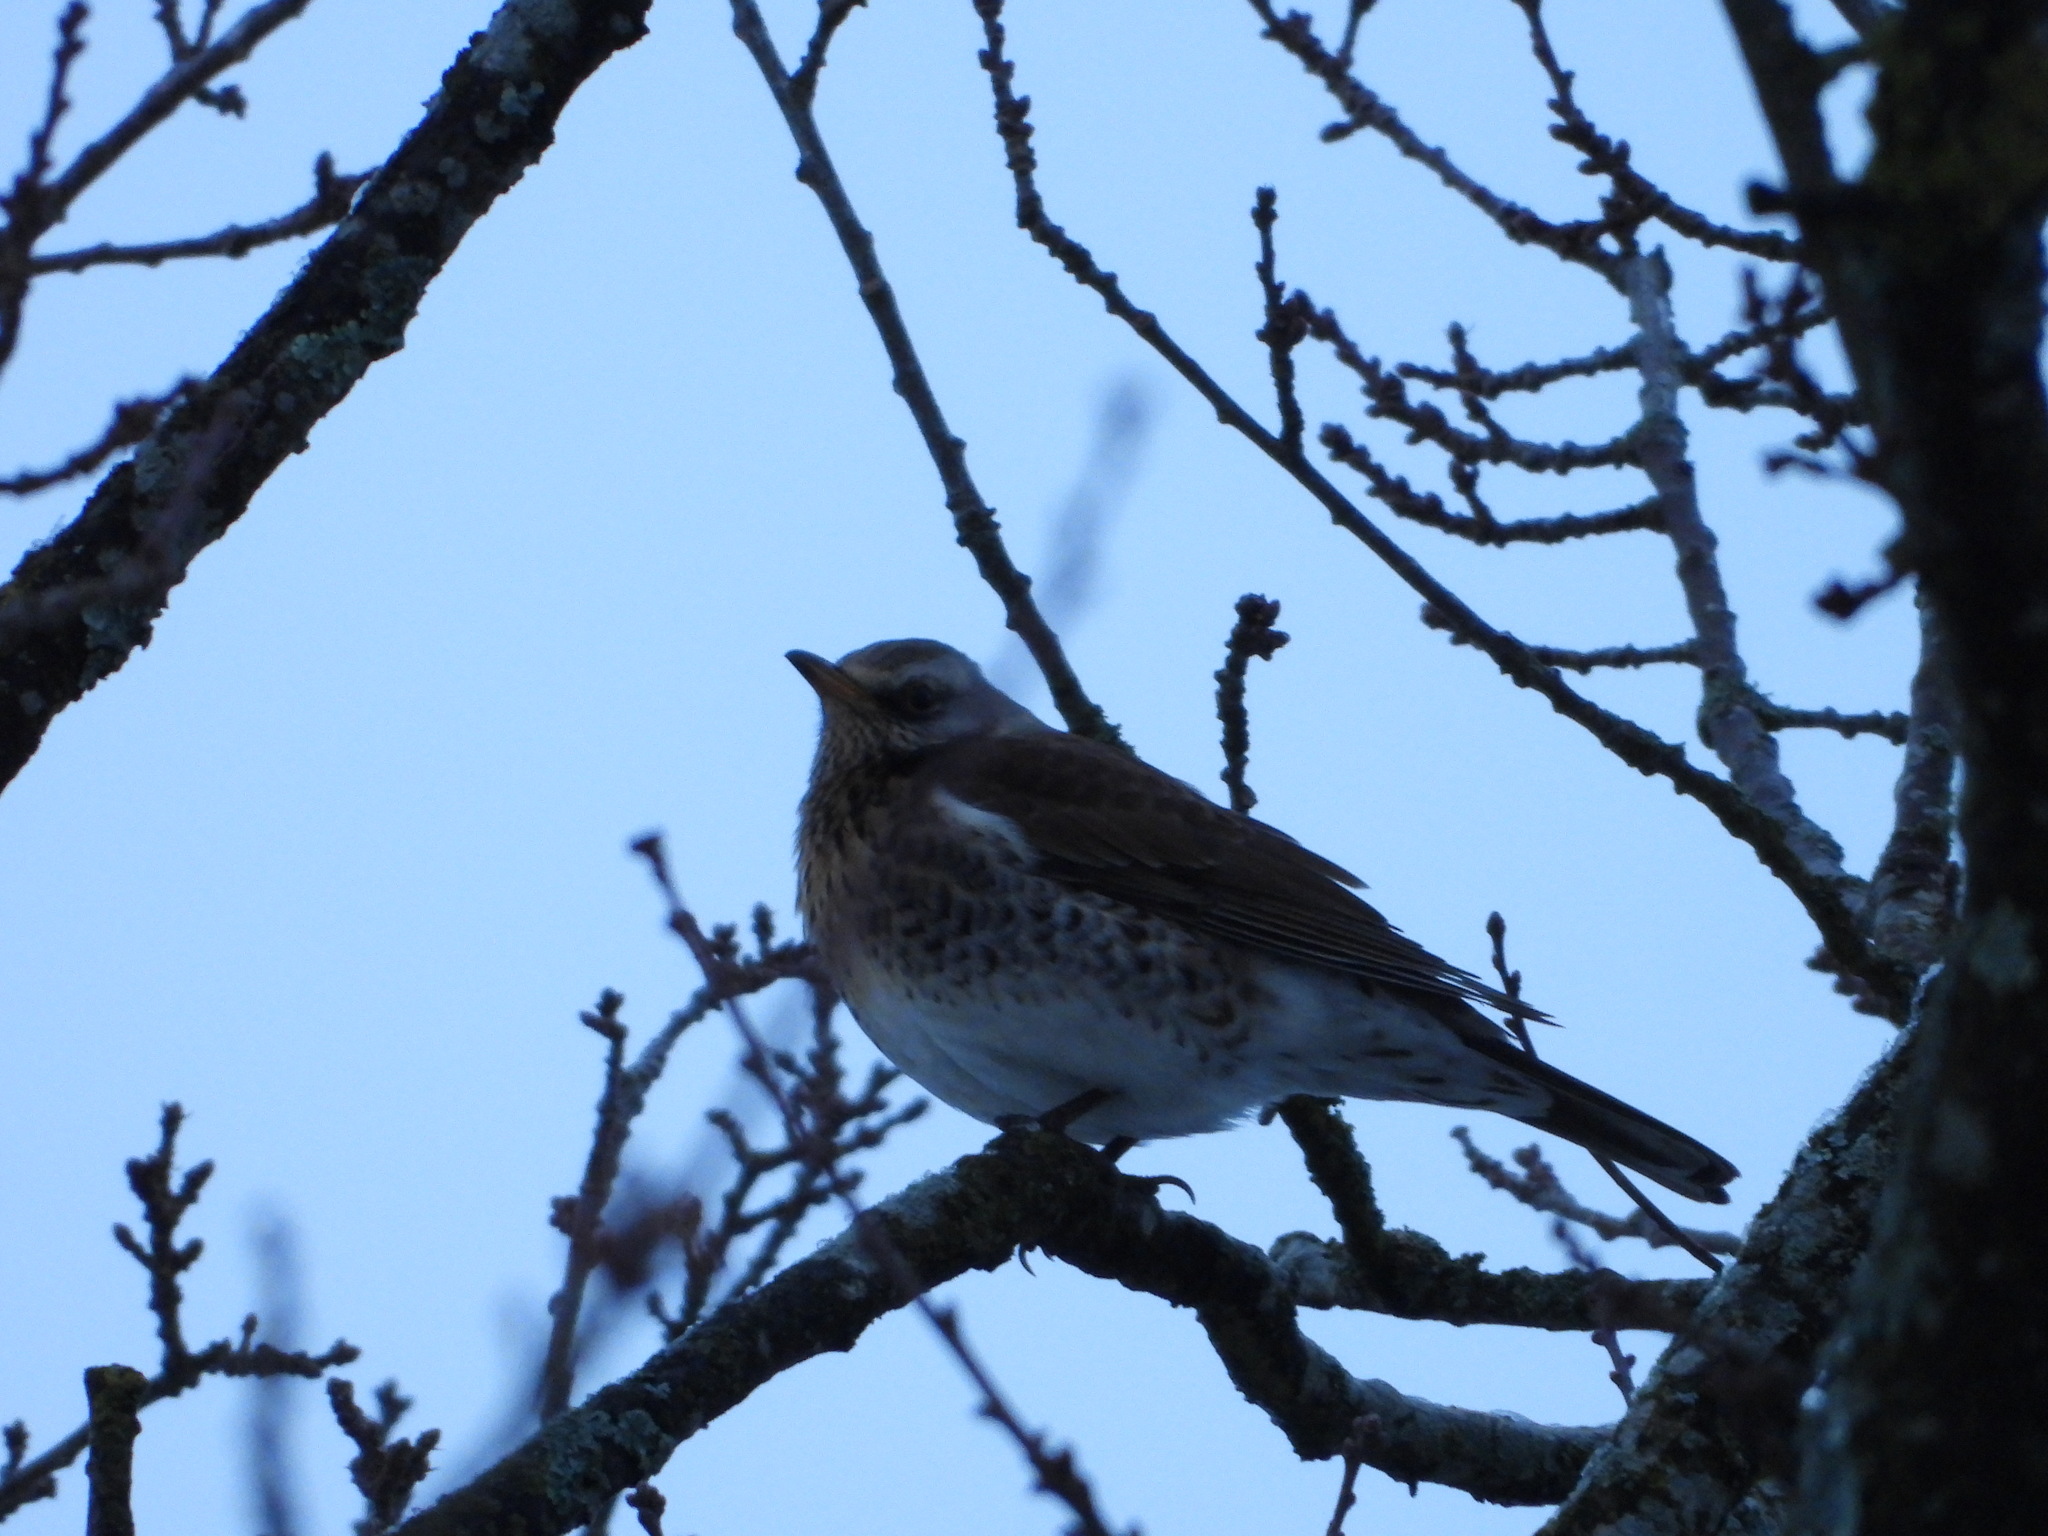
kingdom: Animalia
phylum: Chordata
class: Aves
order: Passeriformes
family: Turdidae
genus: Turdus
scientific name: Turdus pilaris
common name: Fieldfare
